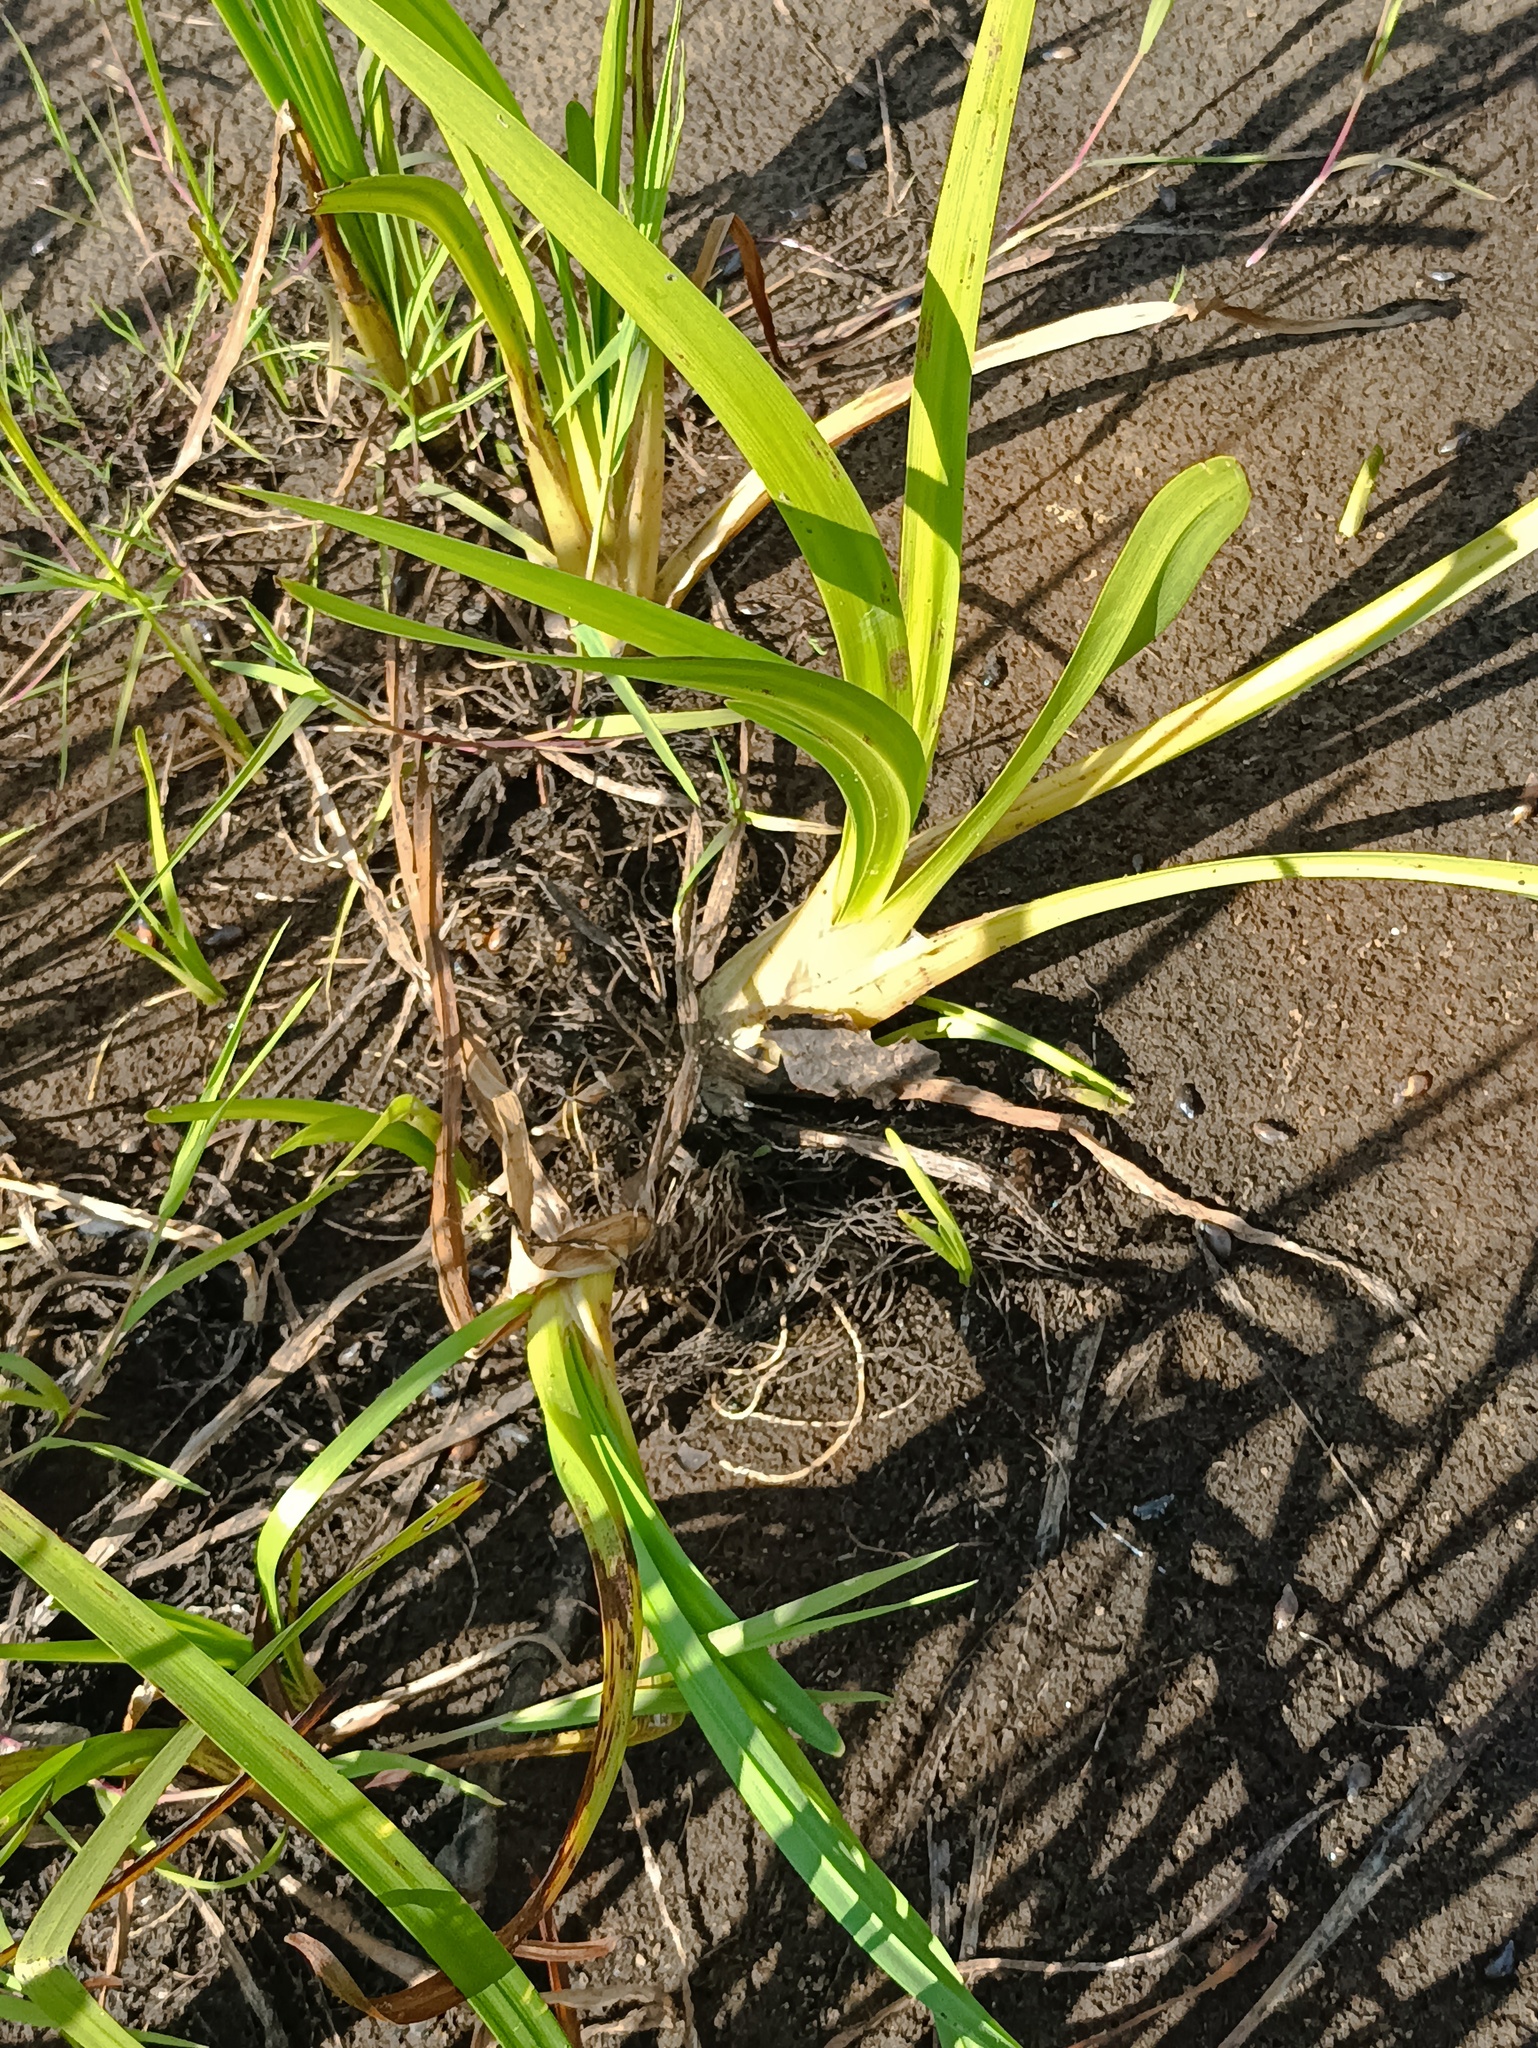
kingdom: Plantae
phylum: Tracheophyta
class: Liliopsida
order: Poales
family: Typhaceae
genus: Sparganium
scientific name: Sparganium emersum
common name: Unbranched bur-reed
